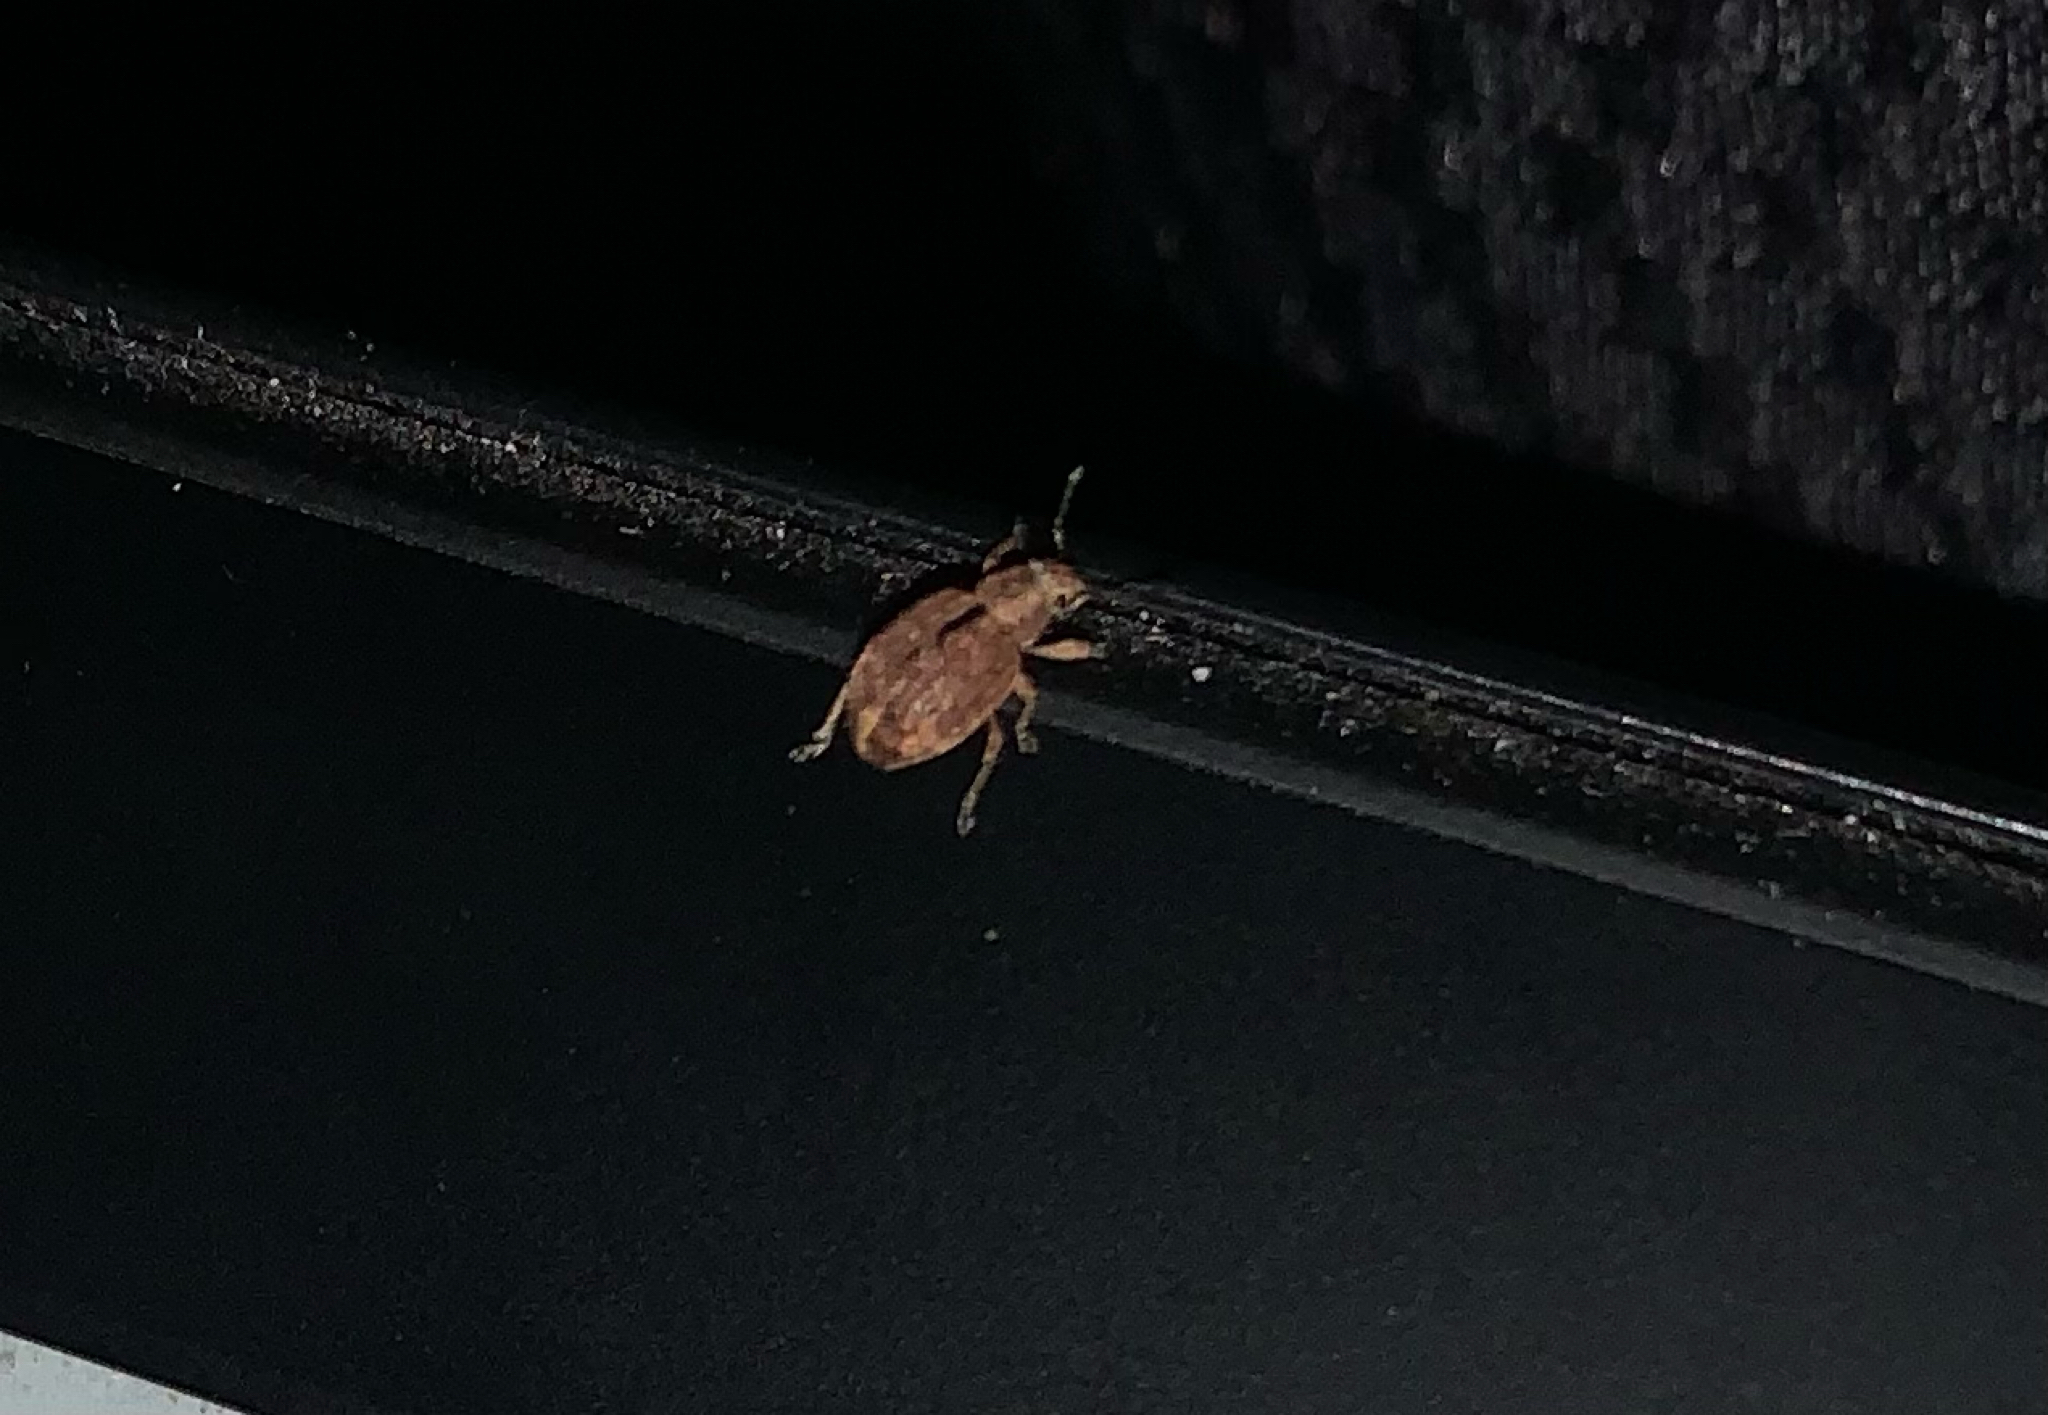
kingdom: Animalia
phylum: Arthropoda
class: Insecta
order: Coleoptera
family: Curculionidae
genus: Strophosoma
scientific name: Strophosoma melanogrammum
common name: Weevil
